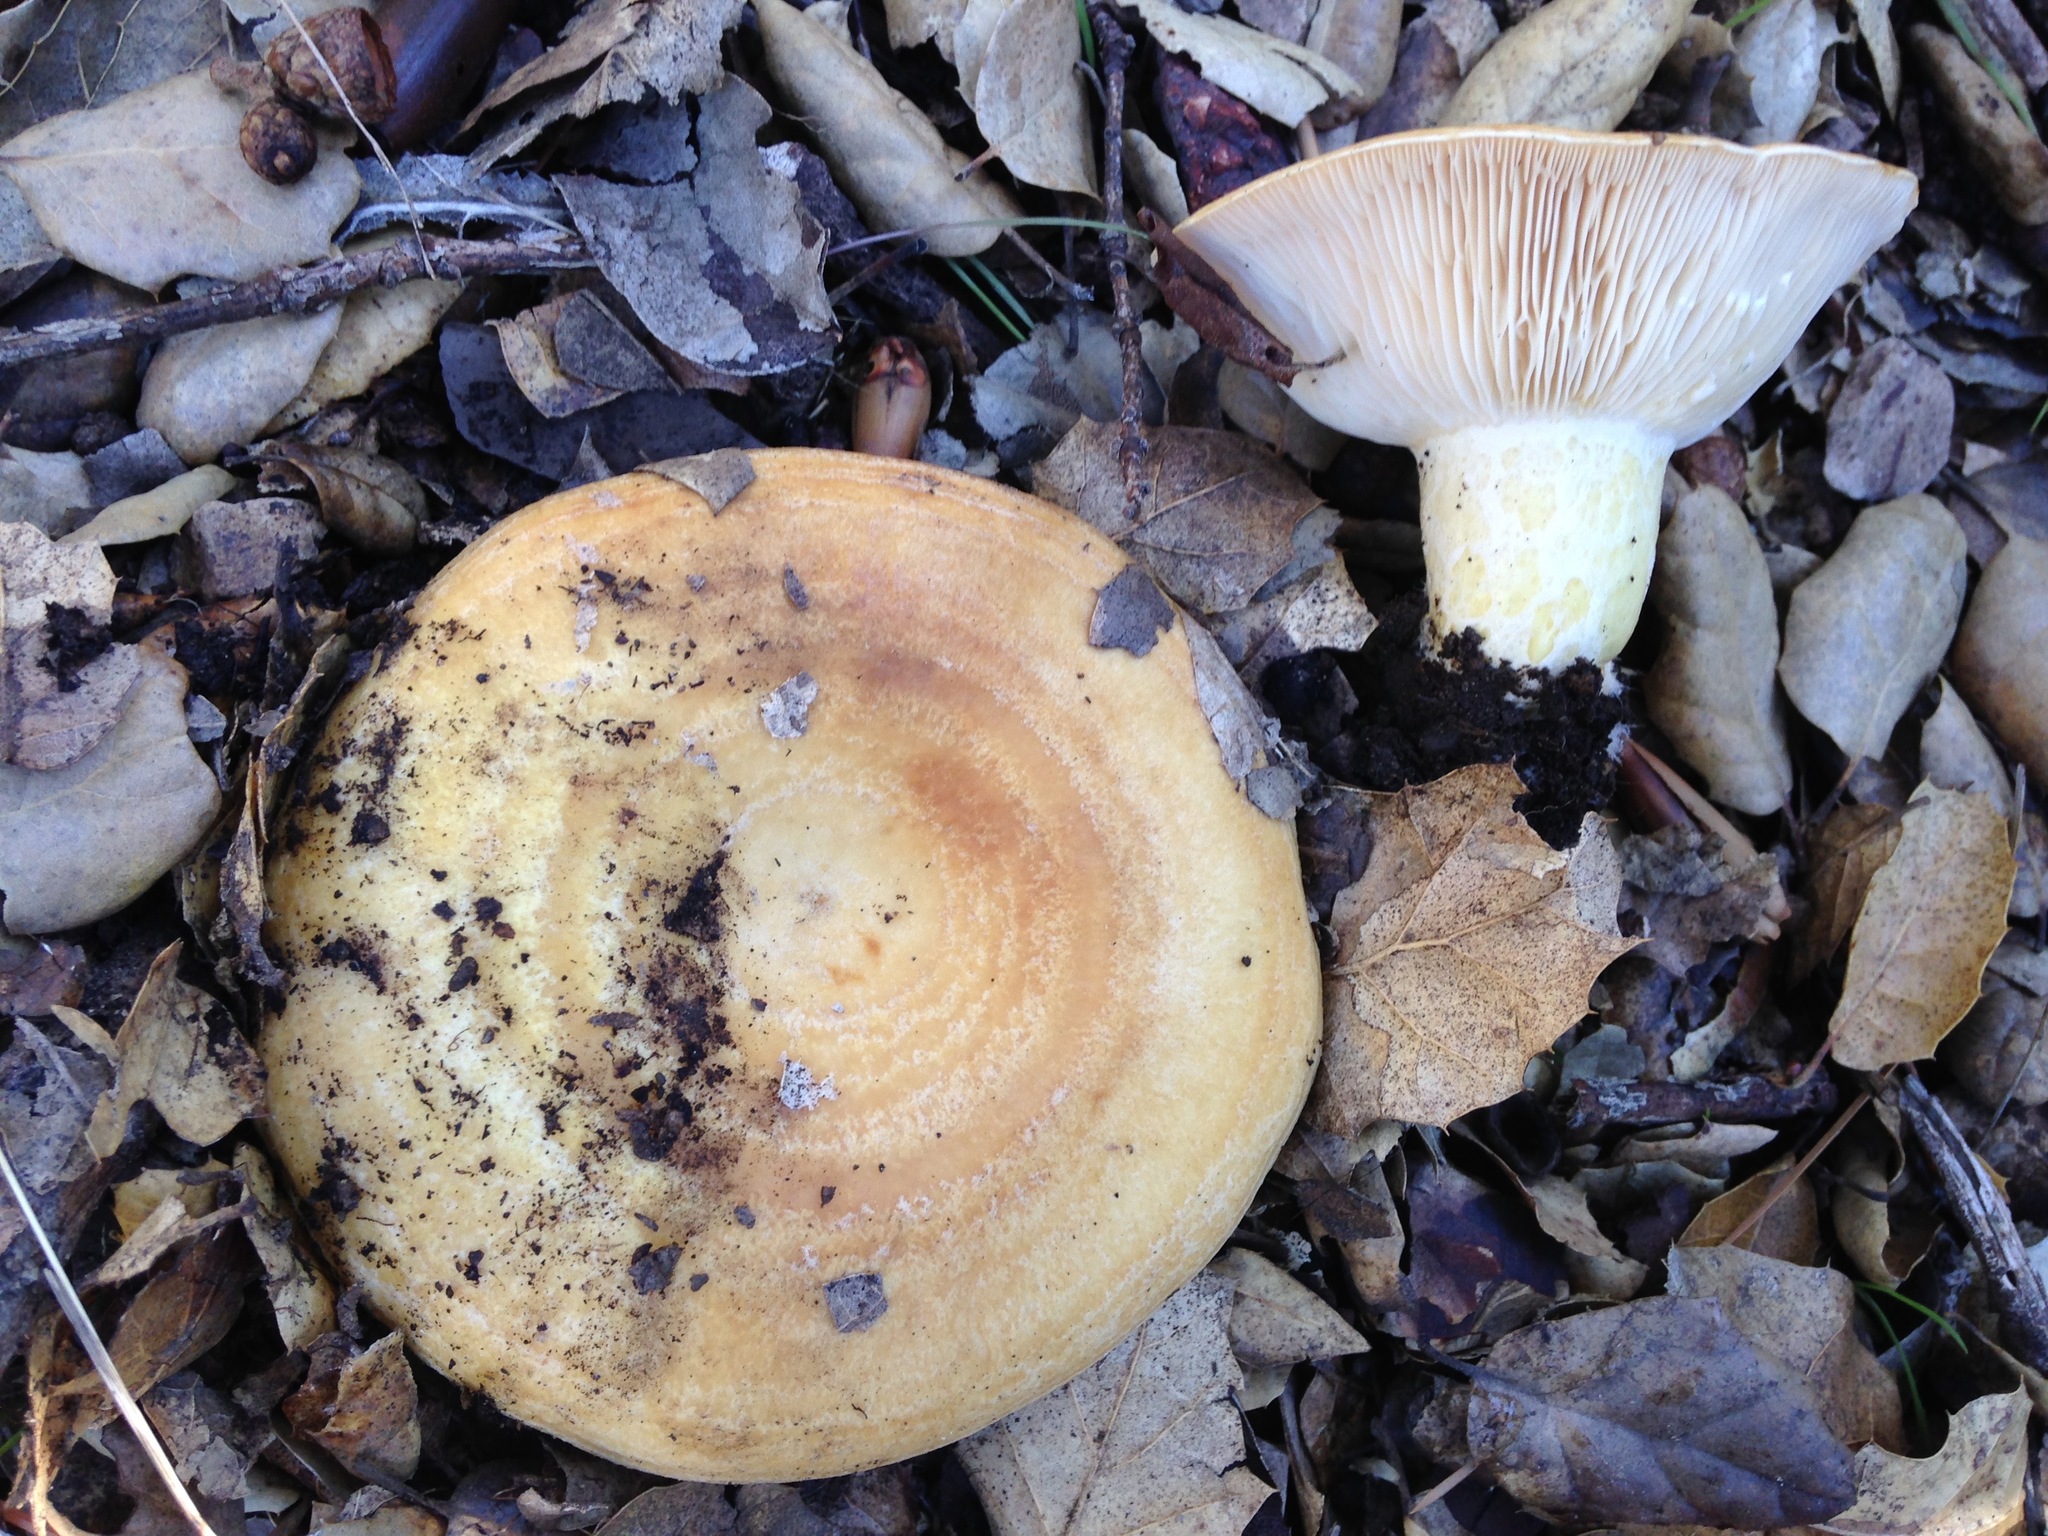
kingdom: Fungi
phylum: Basidiomycota
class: Agaricomycetes
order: Russulales
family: Russulaceae
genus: Lactarius
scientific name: Lactarius alnicola
